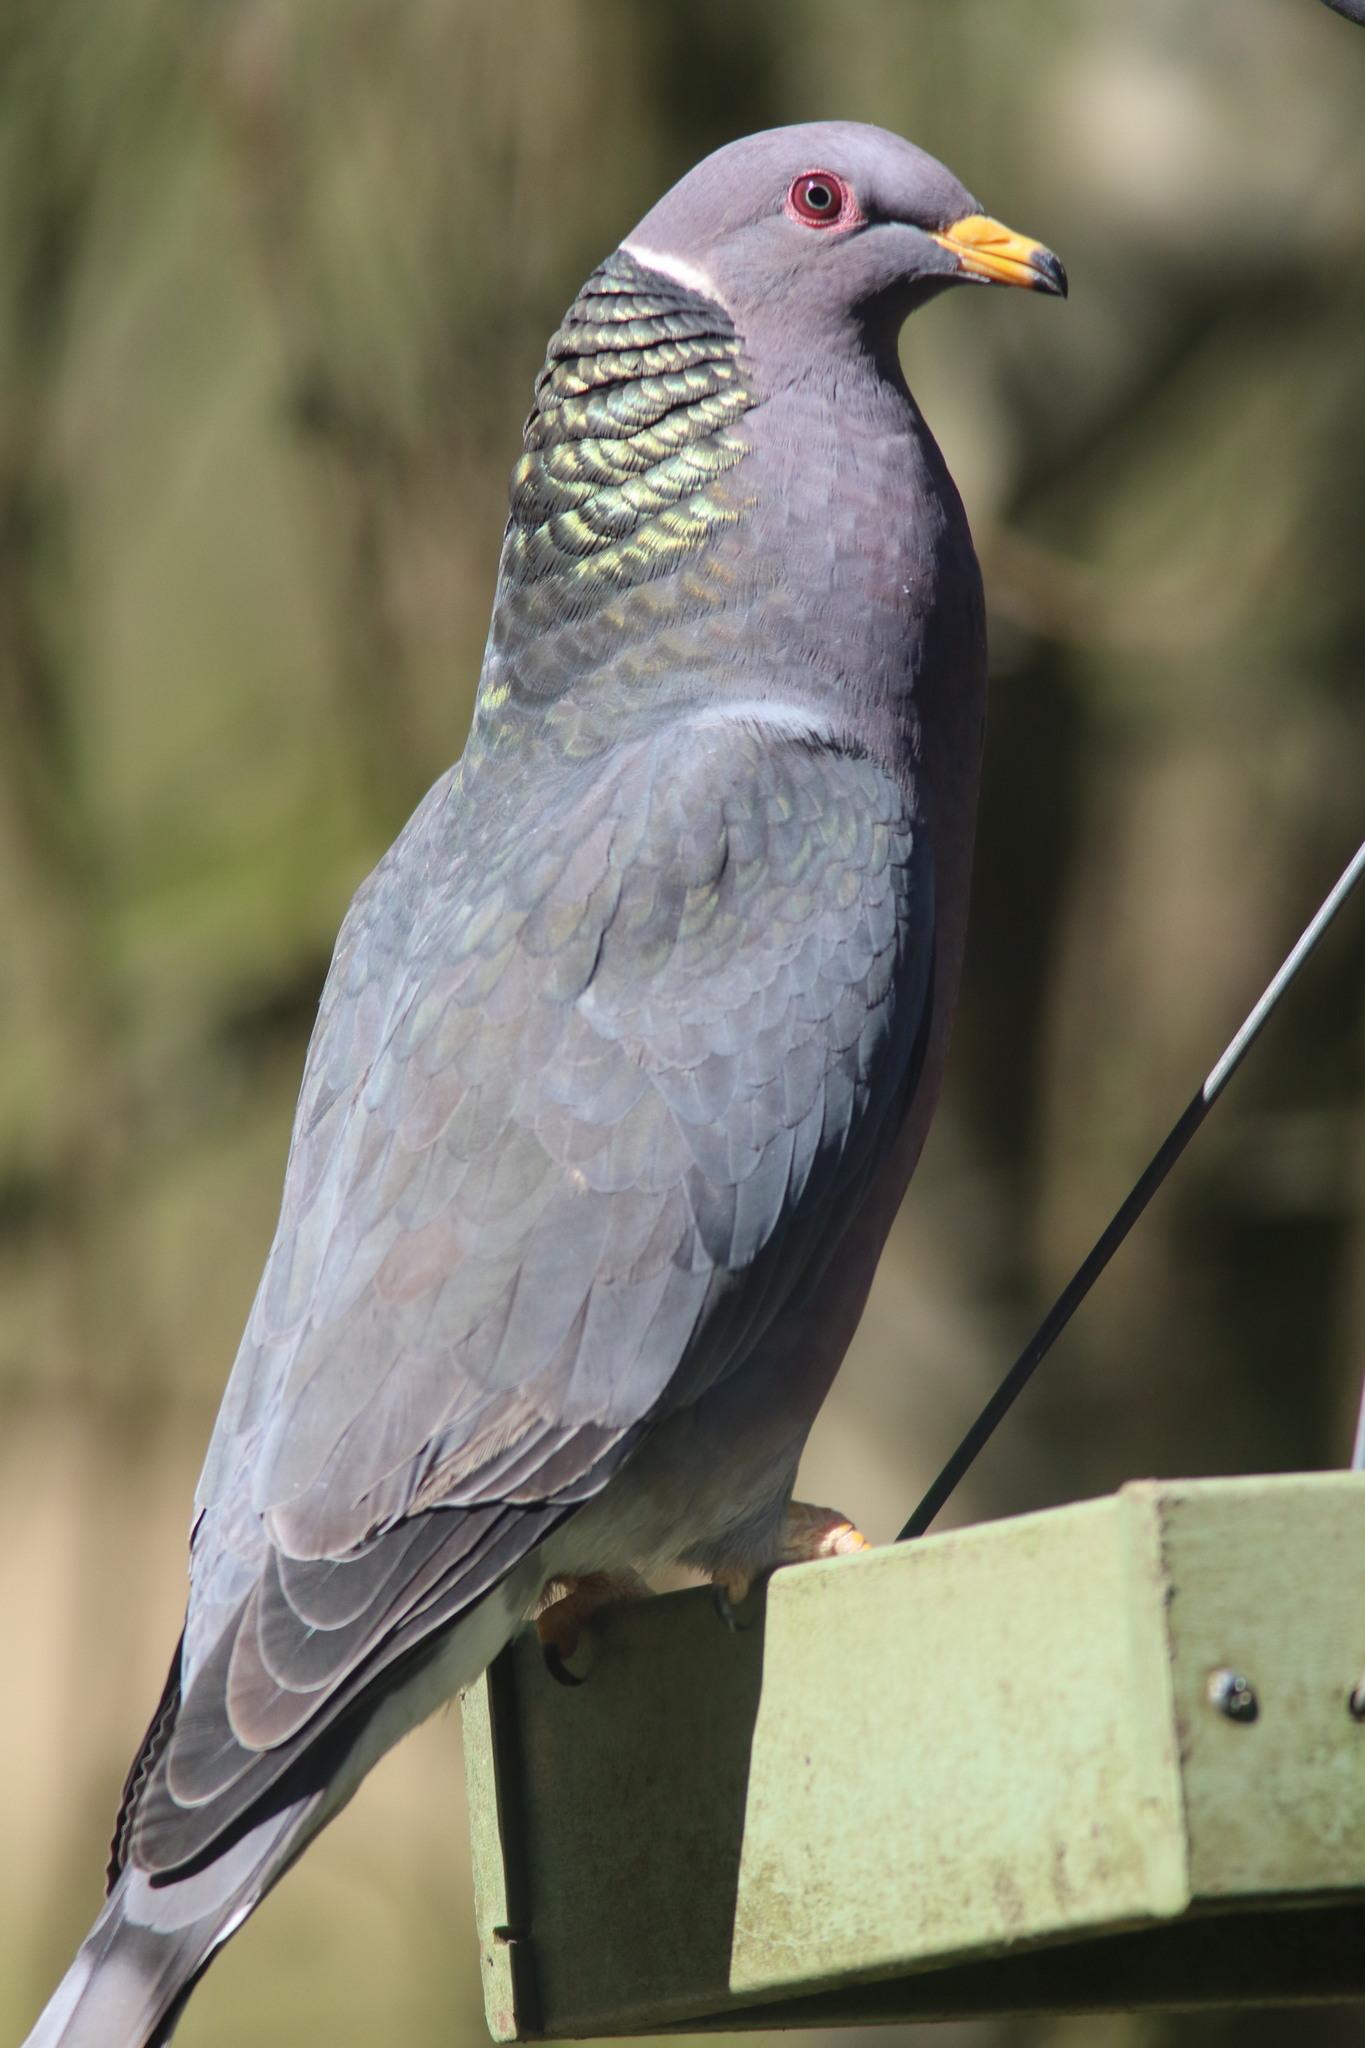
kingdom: Animalia
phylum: Chordata
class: Aves
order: Columbiformes
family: Columbidae
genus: Patagioenas
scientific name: Patagioenas fasciata
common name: Band-tailed pigeon
